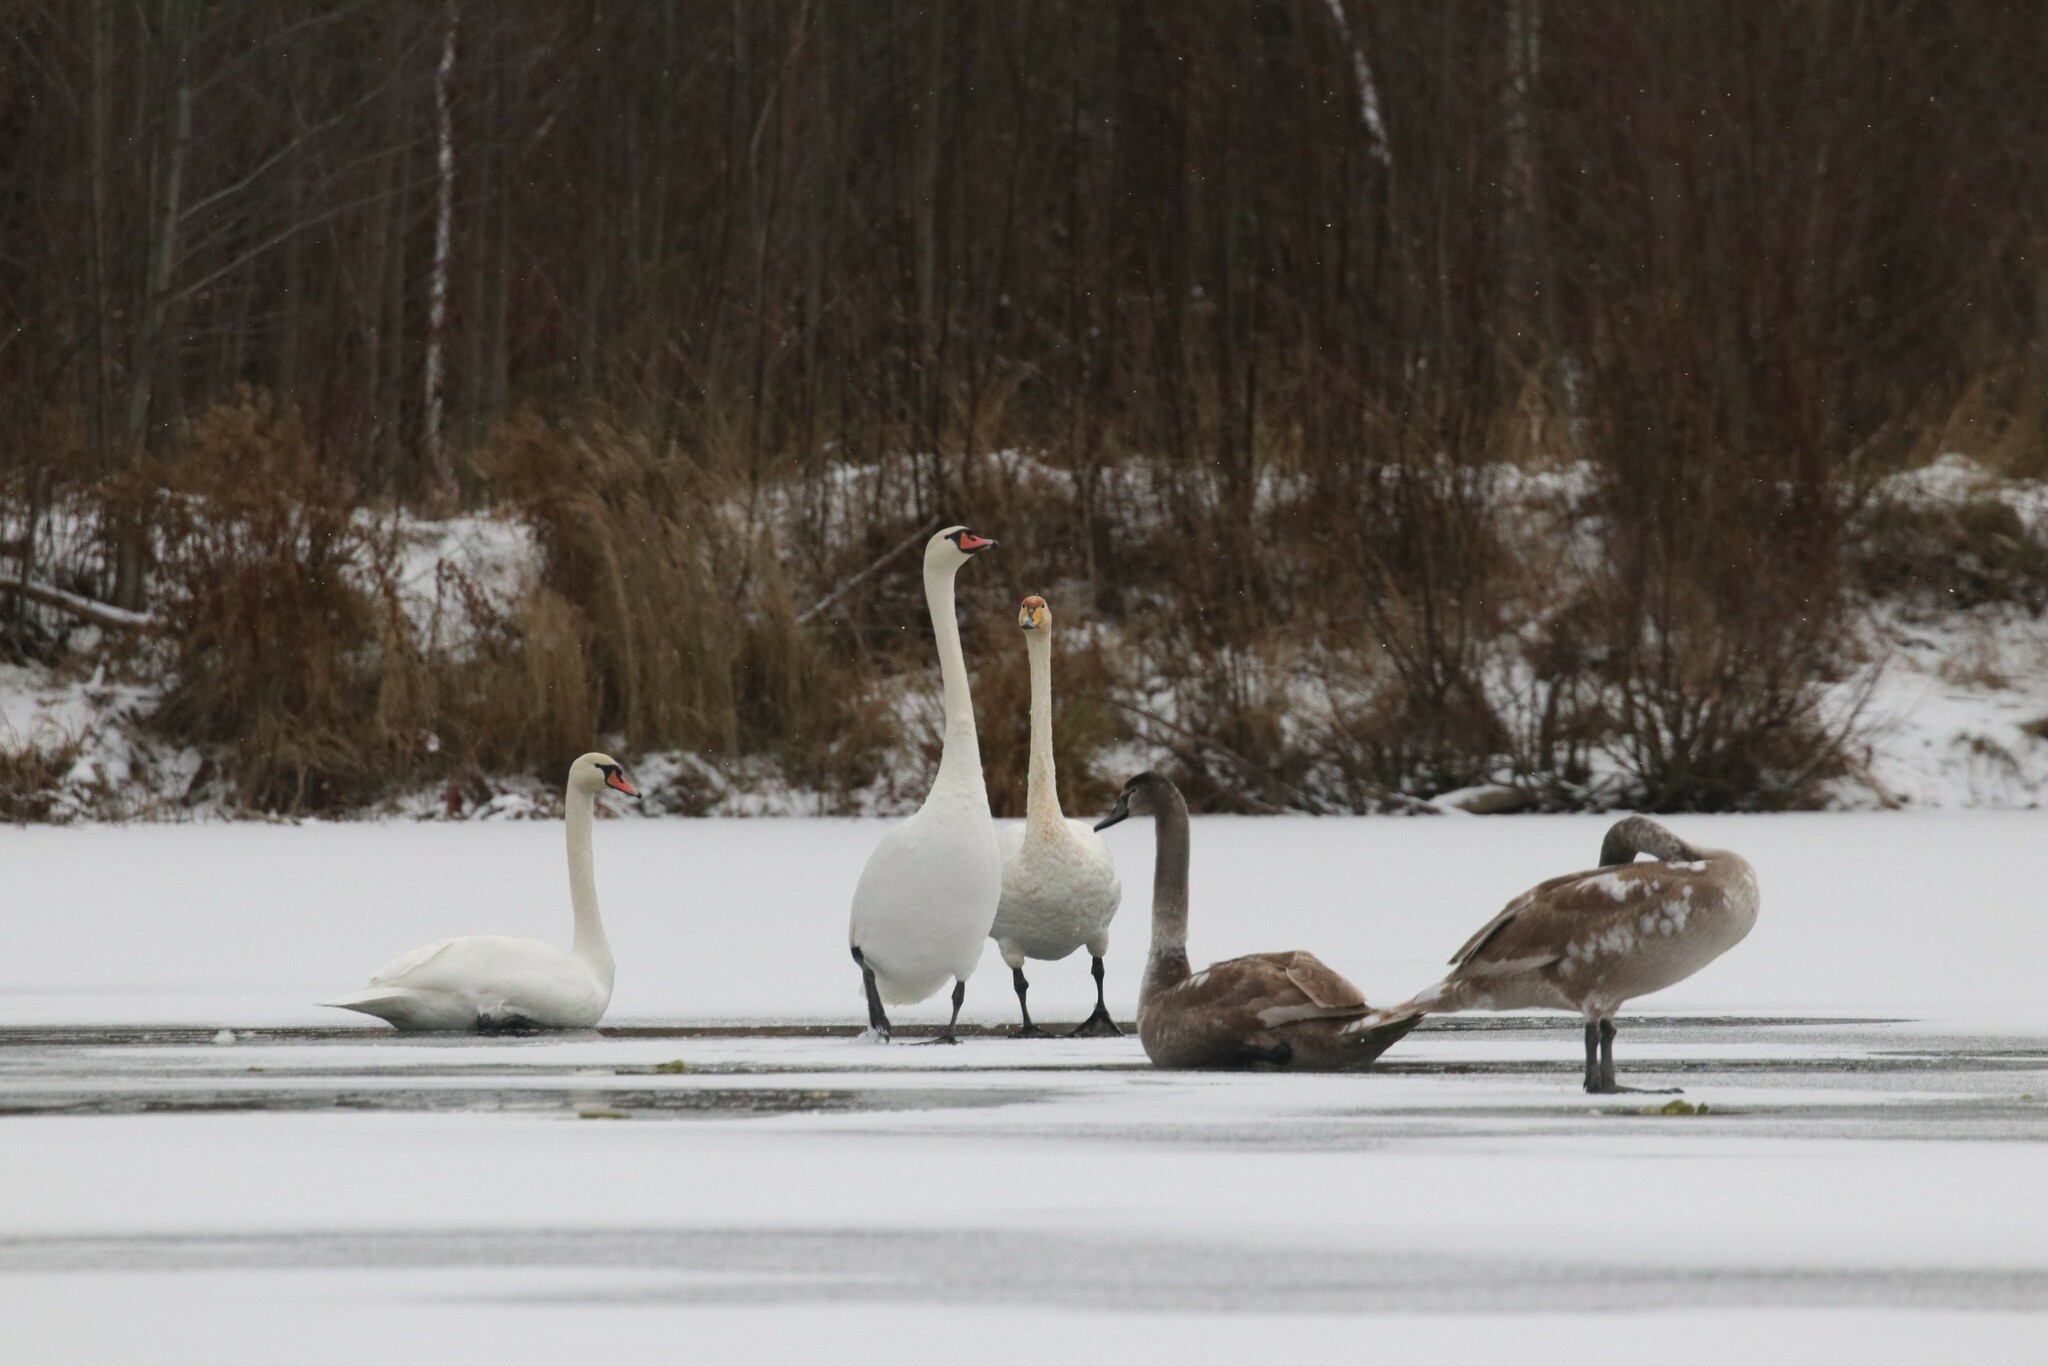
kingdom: Animalia
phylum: Chordata
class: Aves
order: Anseriformes
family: Anatidae
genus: Cygnus
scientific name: Cygnus olor
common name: Mute swan
